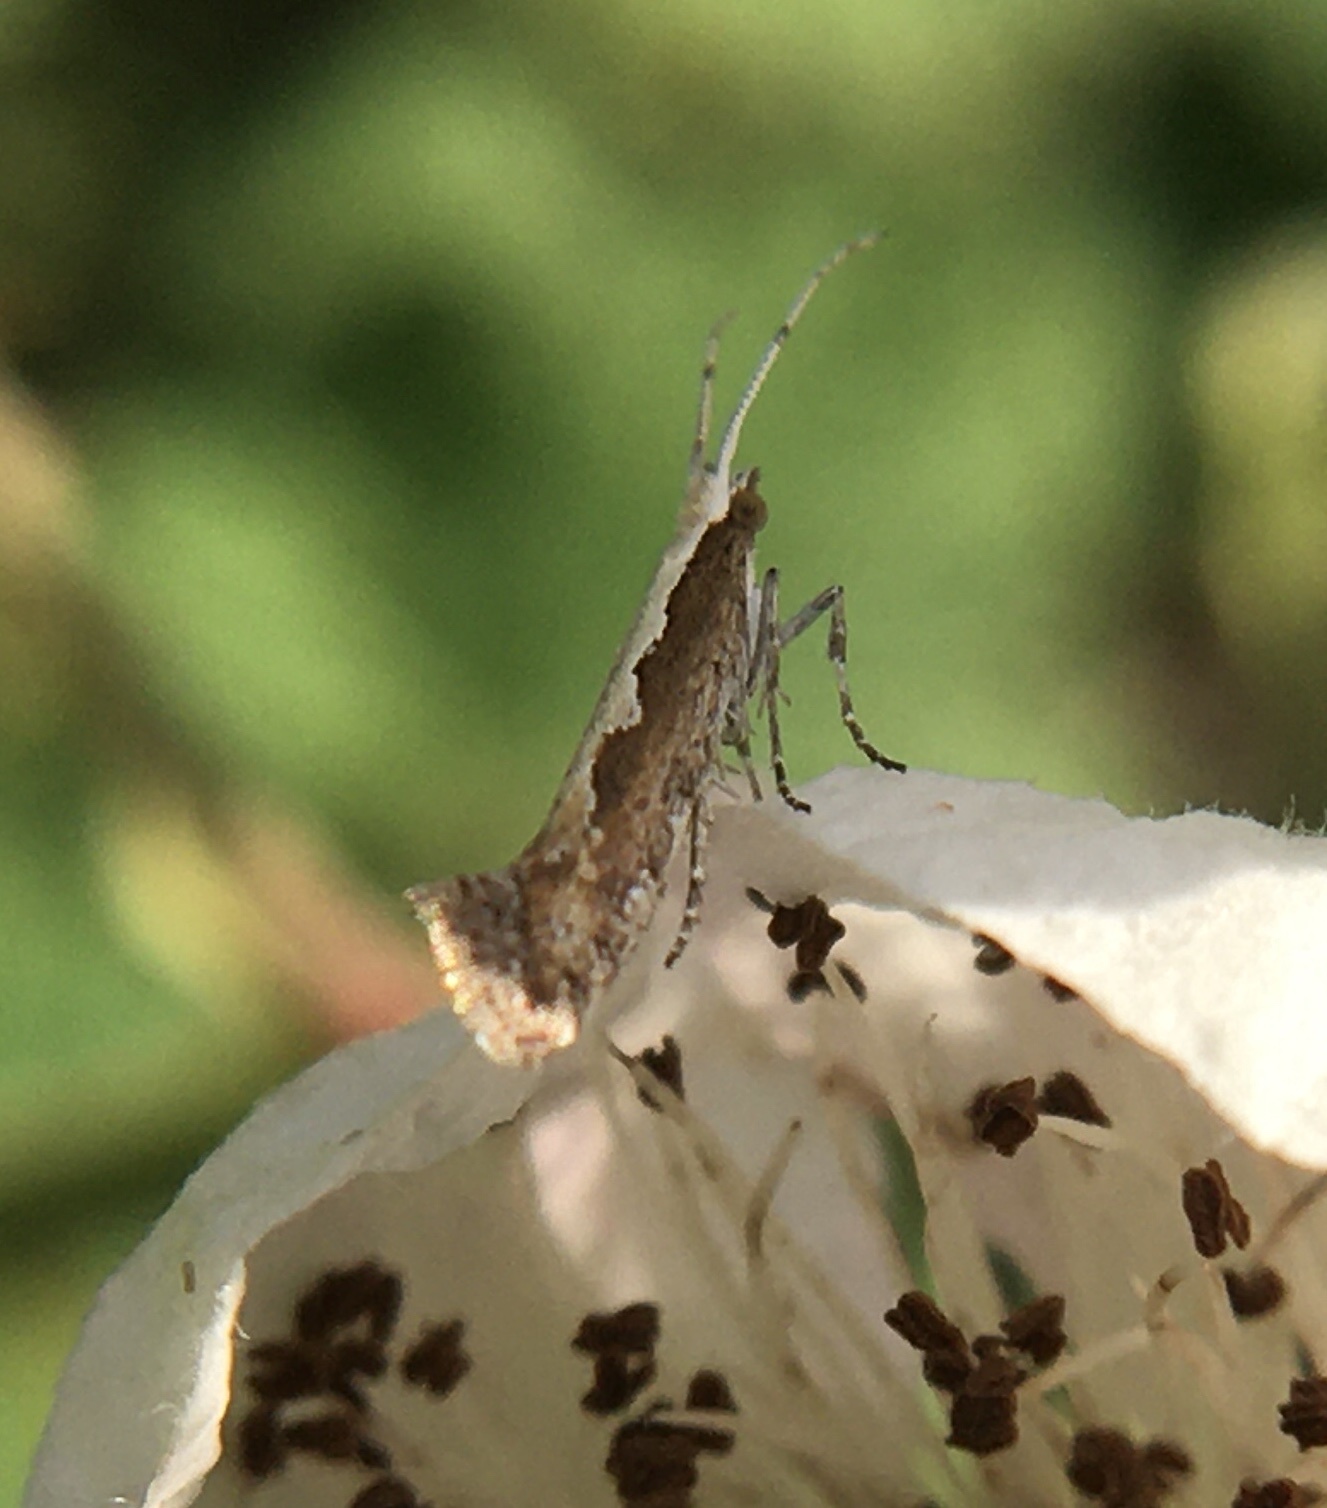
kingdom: Animalia
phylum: Arthropoda
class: Insecta
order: Lepidoptera
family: Plutellidae
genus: Plutella
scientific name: Plutella xylostella
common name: Diamond-back moth
